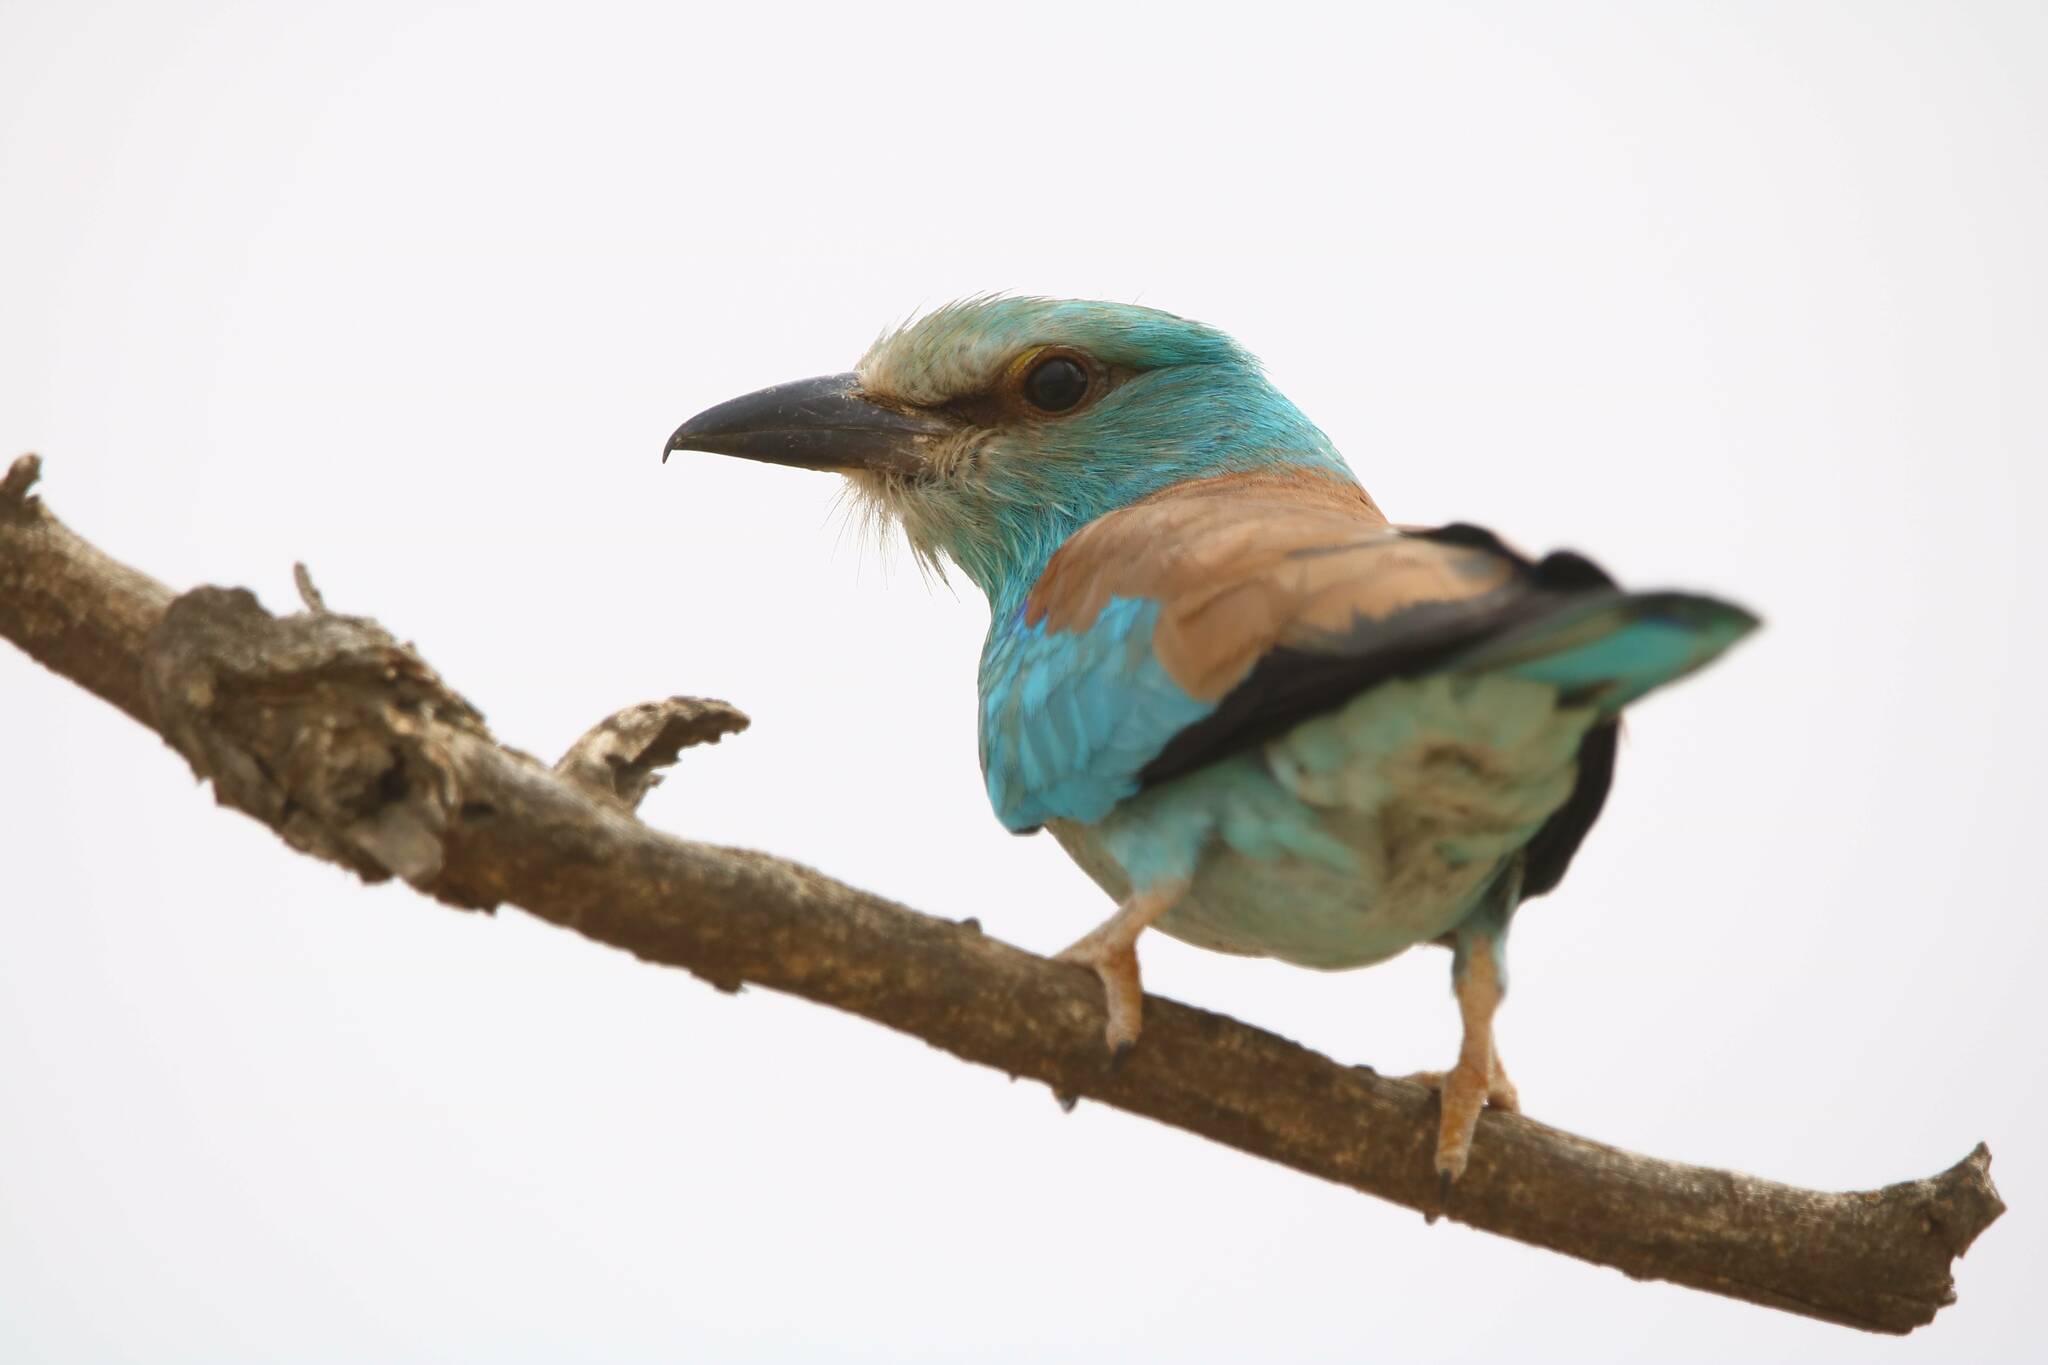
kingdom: Animalia
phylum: Chordata
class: Aves
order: Coraciiformes
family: Coraciidae
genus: Coracias
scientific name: Coracias garrulus
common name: European roller
